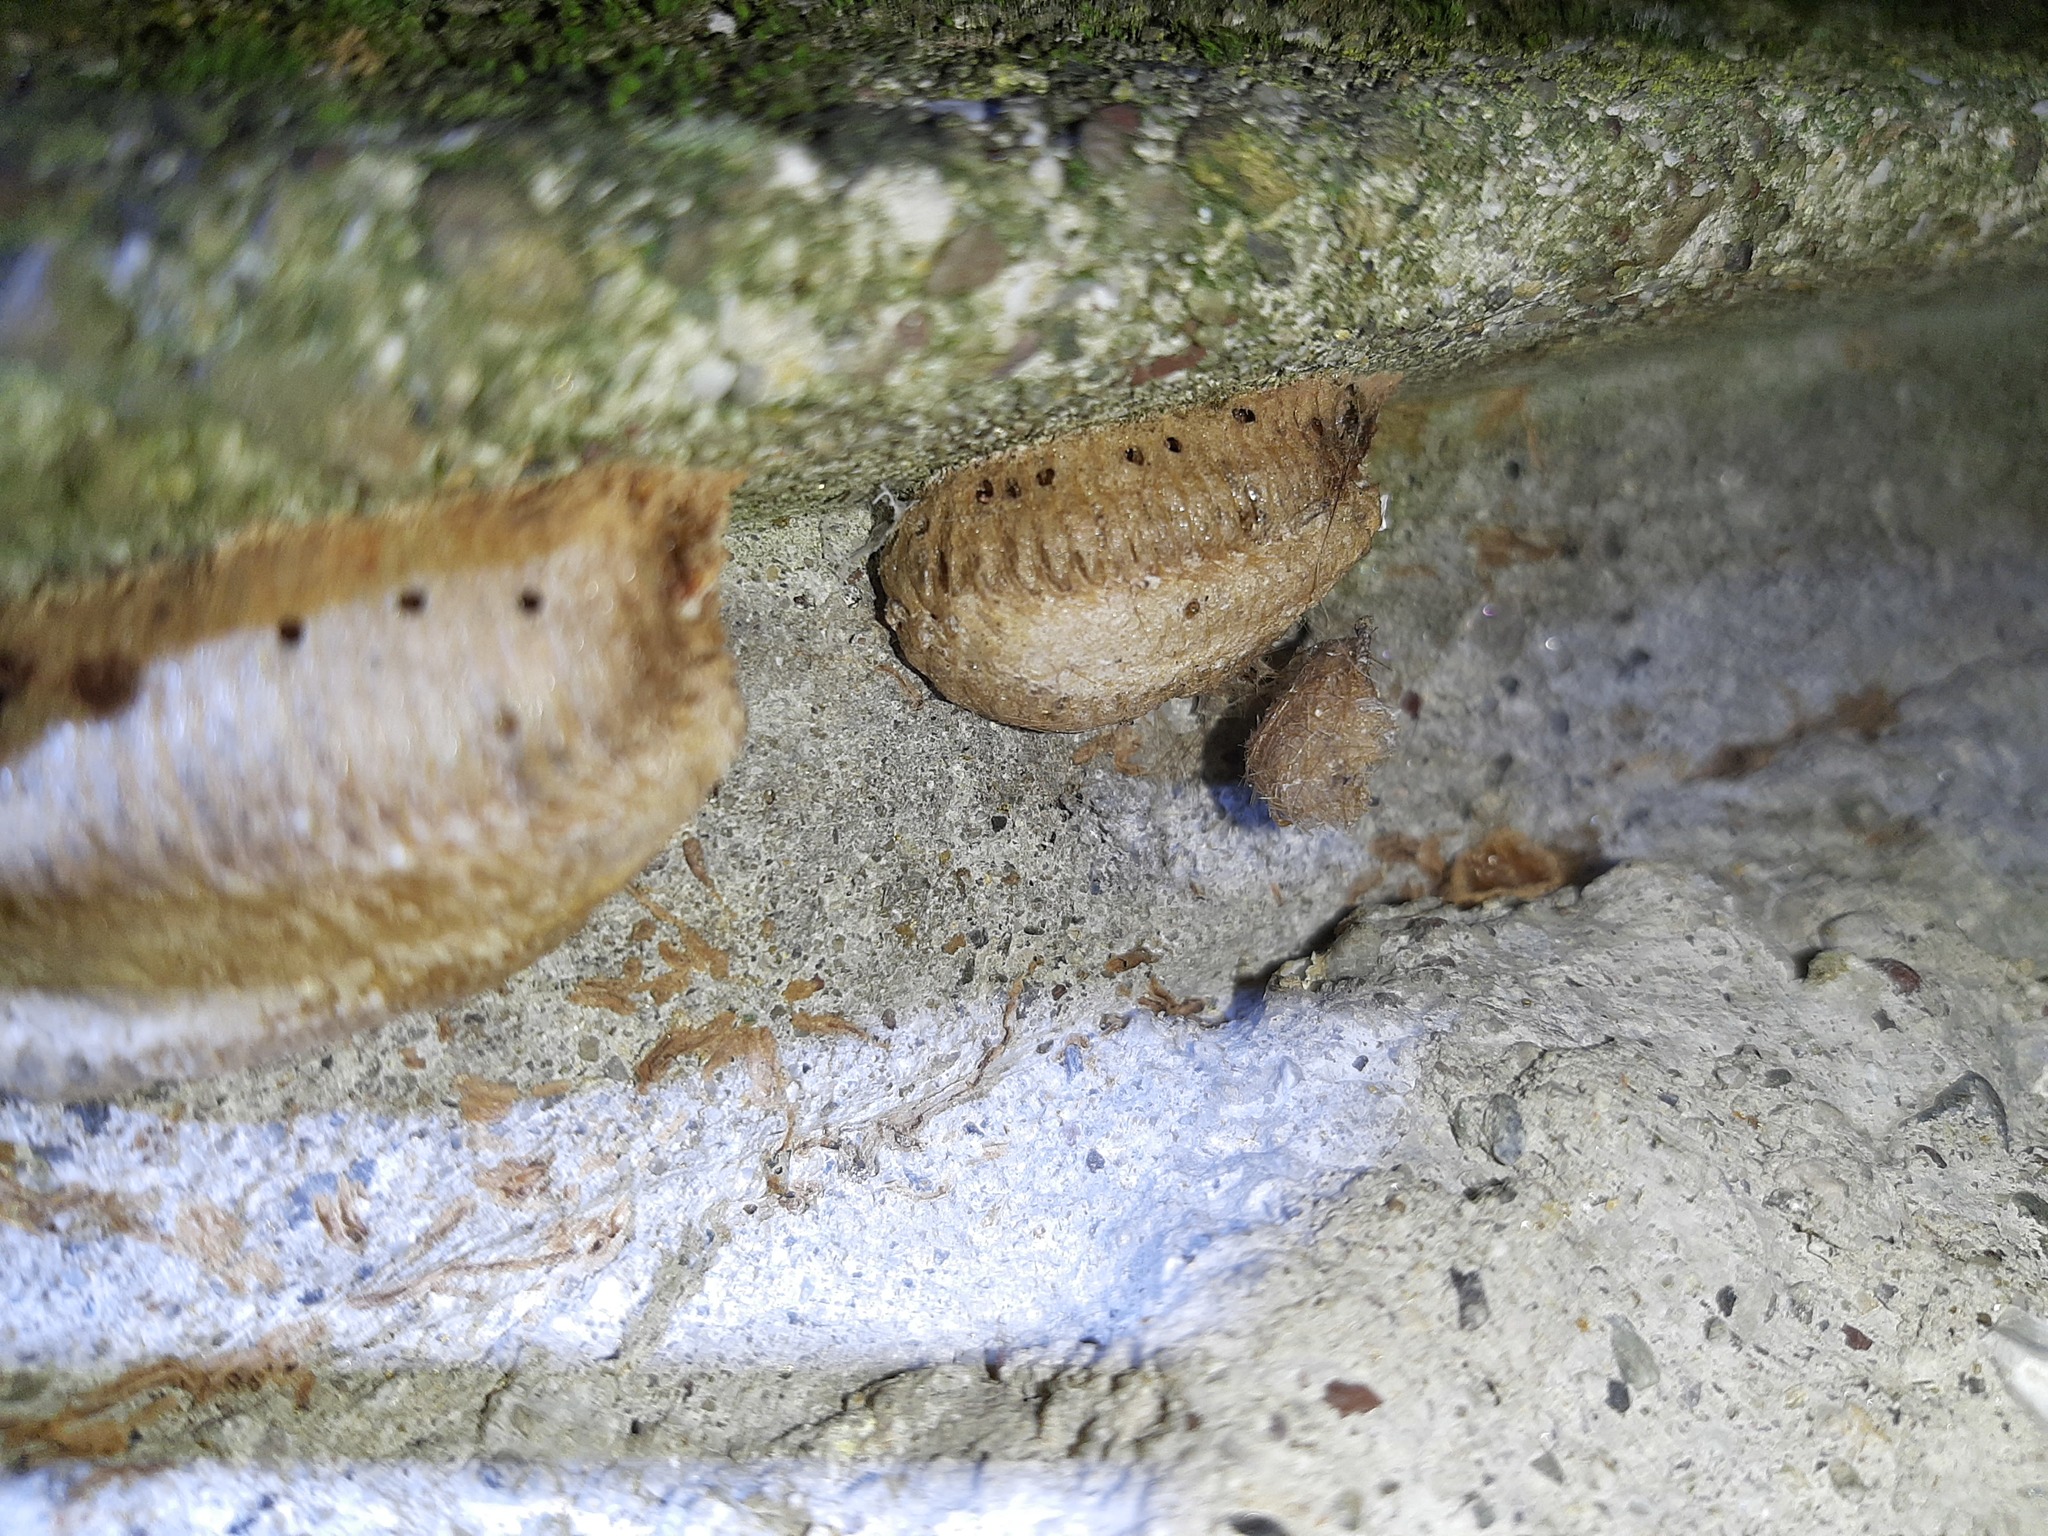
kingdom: Animalia
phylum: Arthropoda
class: Insecta
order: Mantodea
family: Mantidae
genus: Mantis
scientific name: Mantis religiosa
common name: Praying mantis
